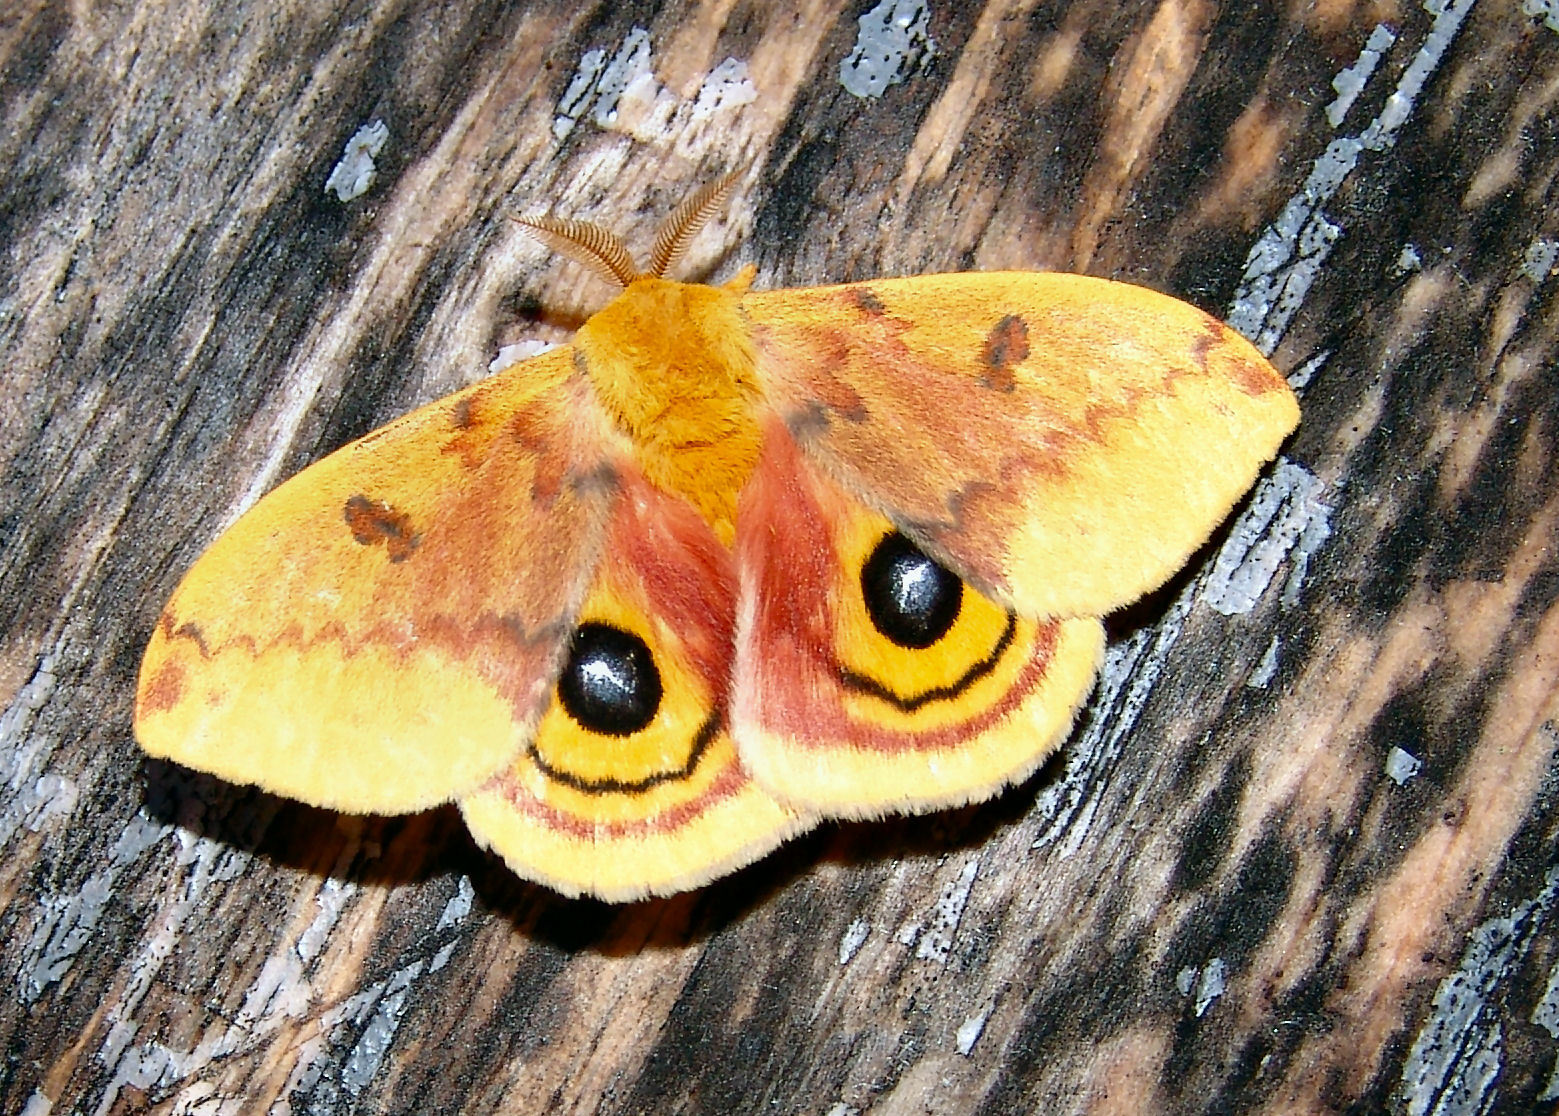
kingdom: Animalia
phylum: Arthropoda
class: Insecta
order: Lepidoptera
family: Saturniidae
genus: Automeris
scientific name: Automeris io
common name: Io moth
